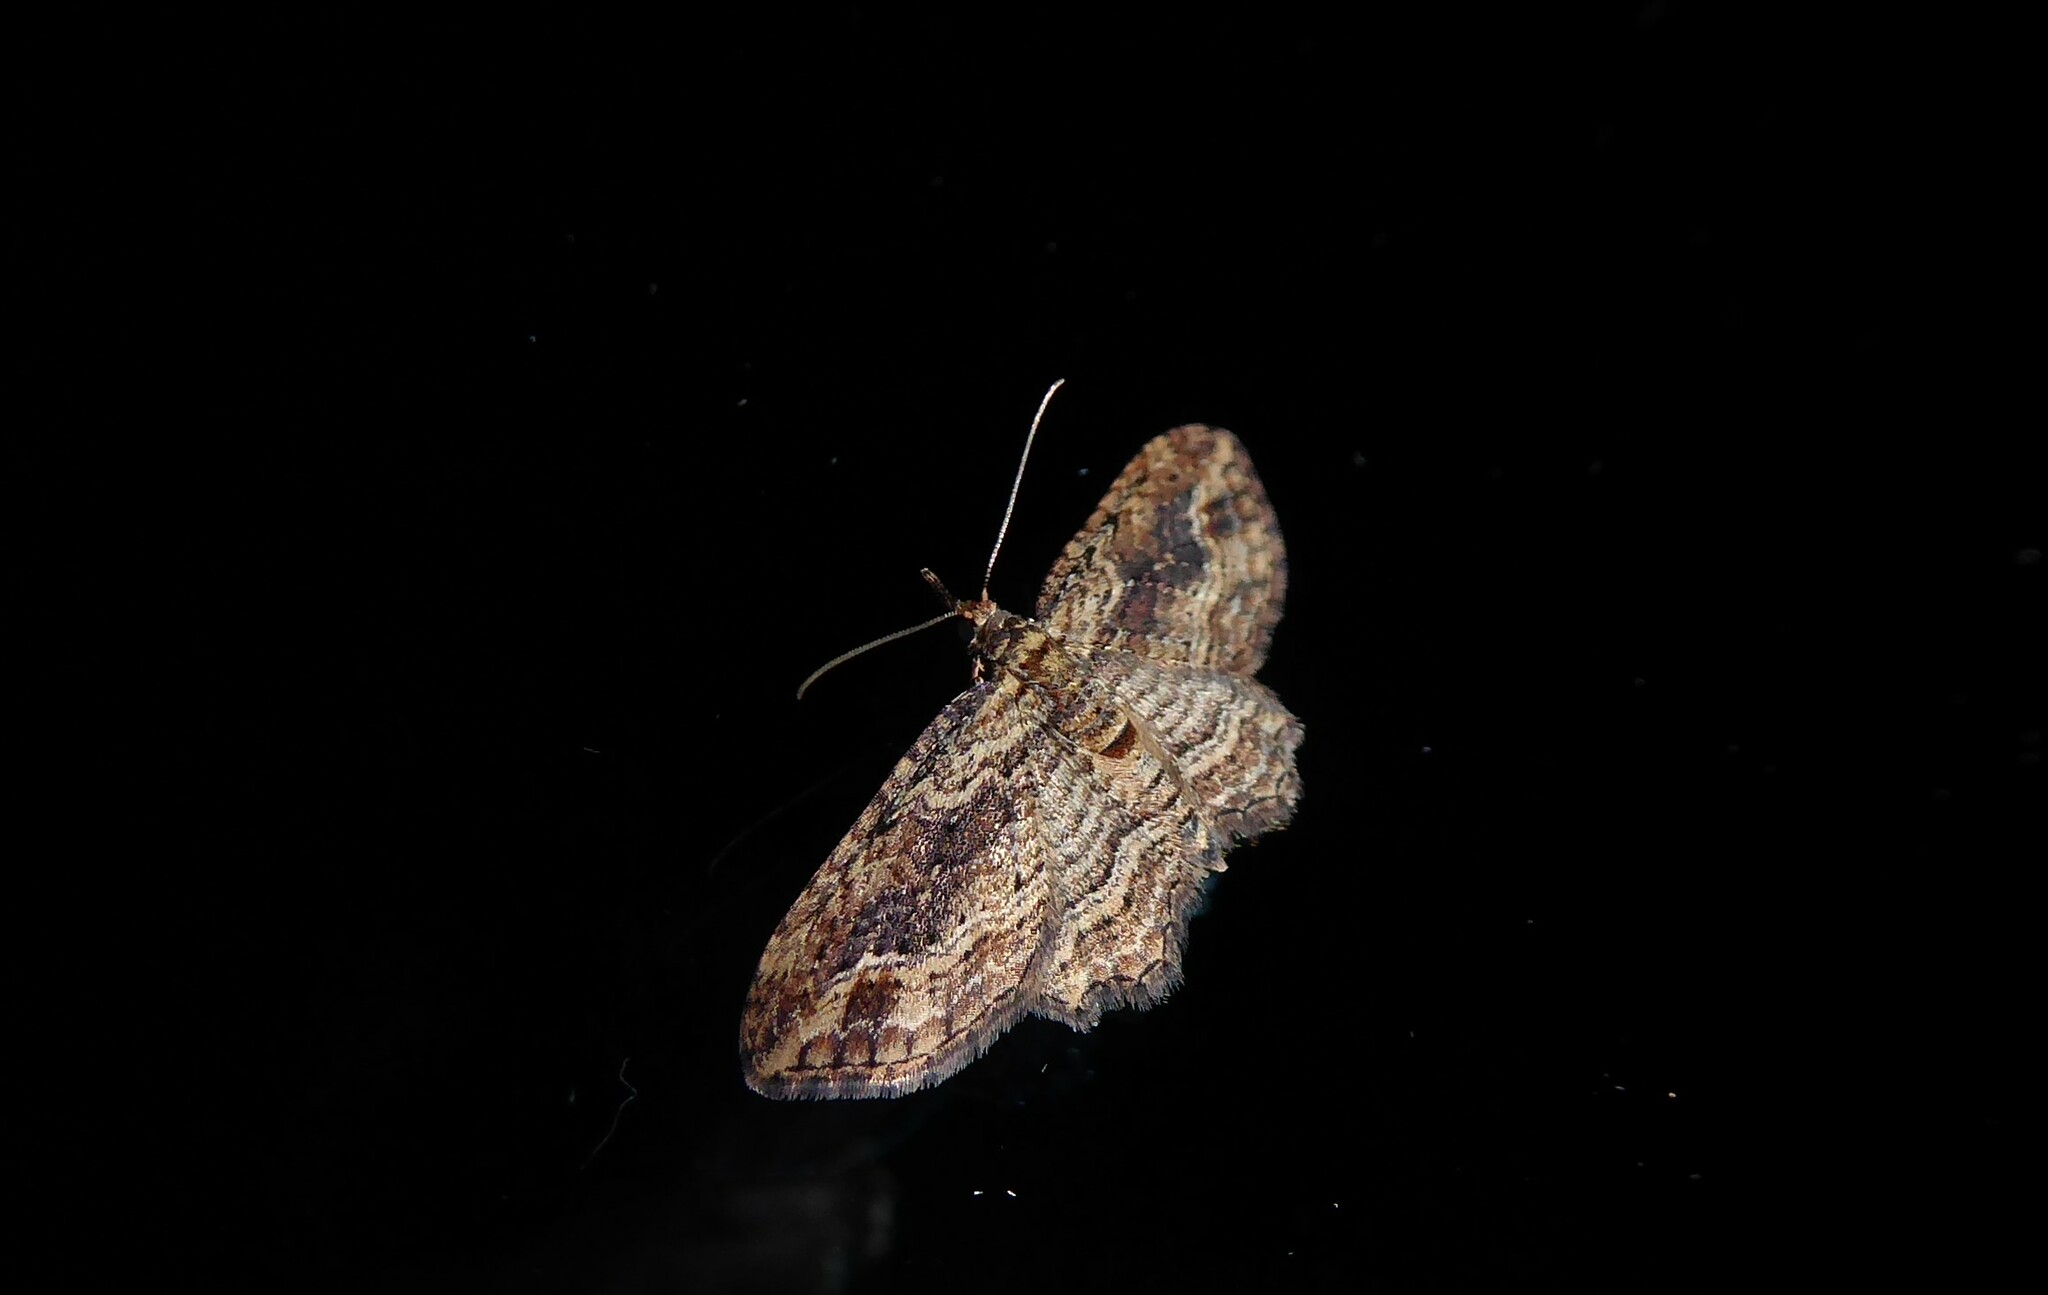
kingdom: Animalia
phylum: Arthropoda
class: Insecta
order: Lepidoptera
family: Geometridae
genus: Chloroclystis
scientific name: Chloroclystis filata
